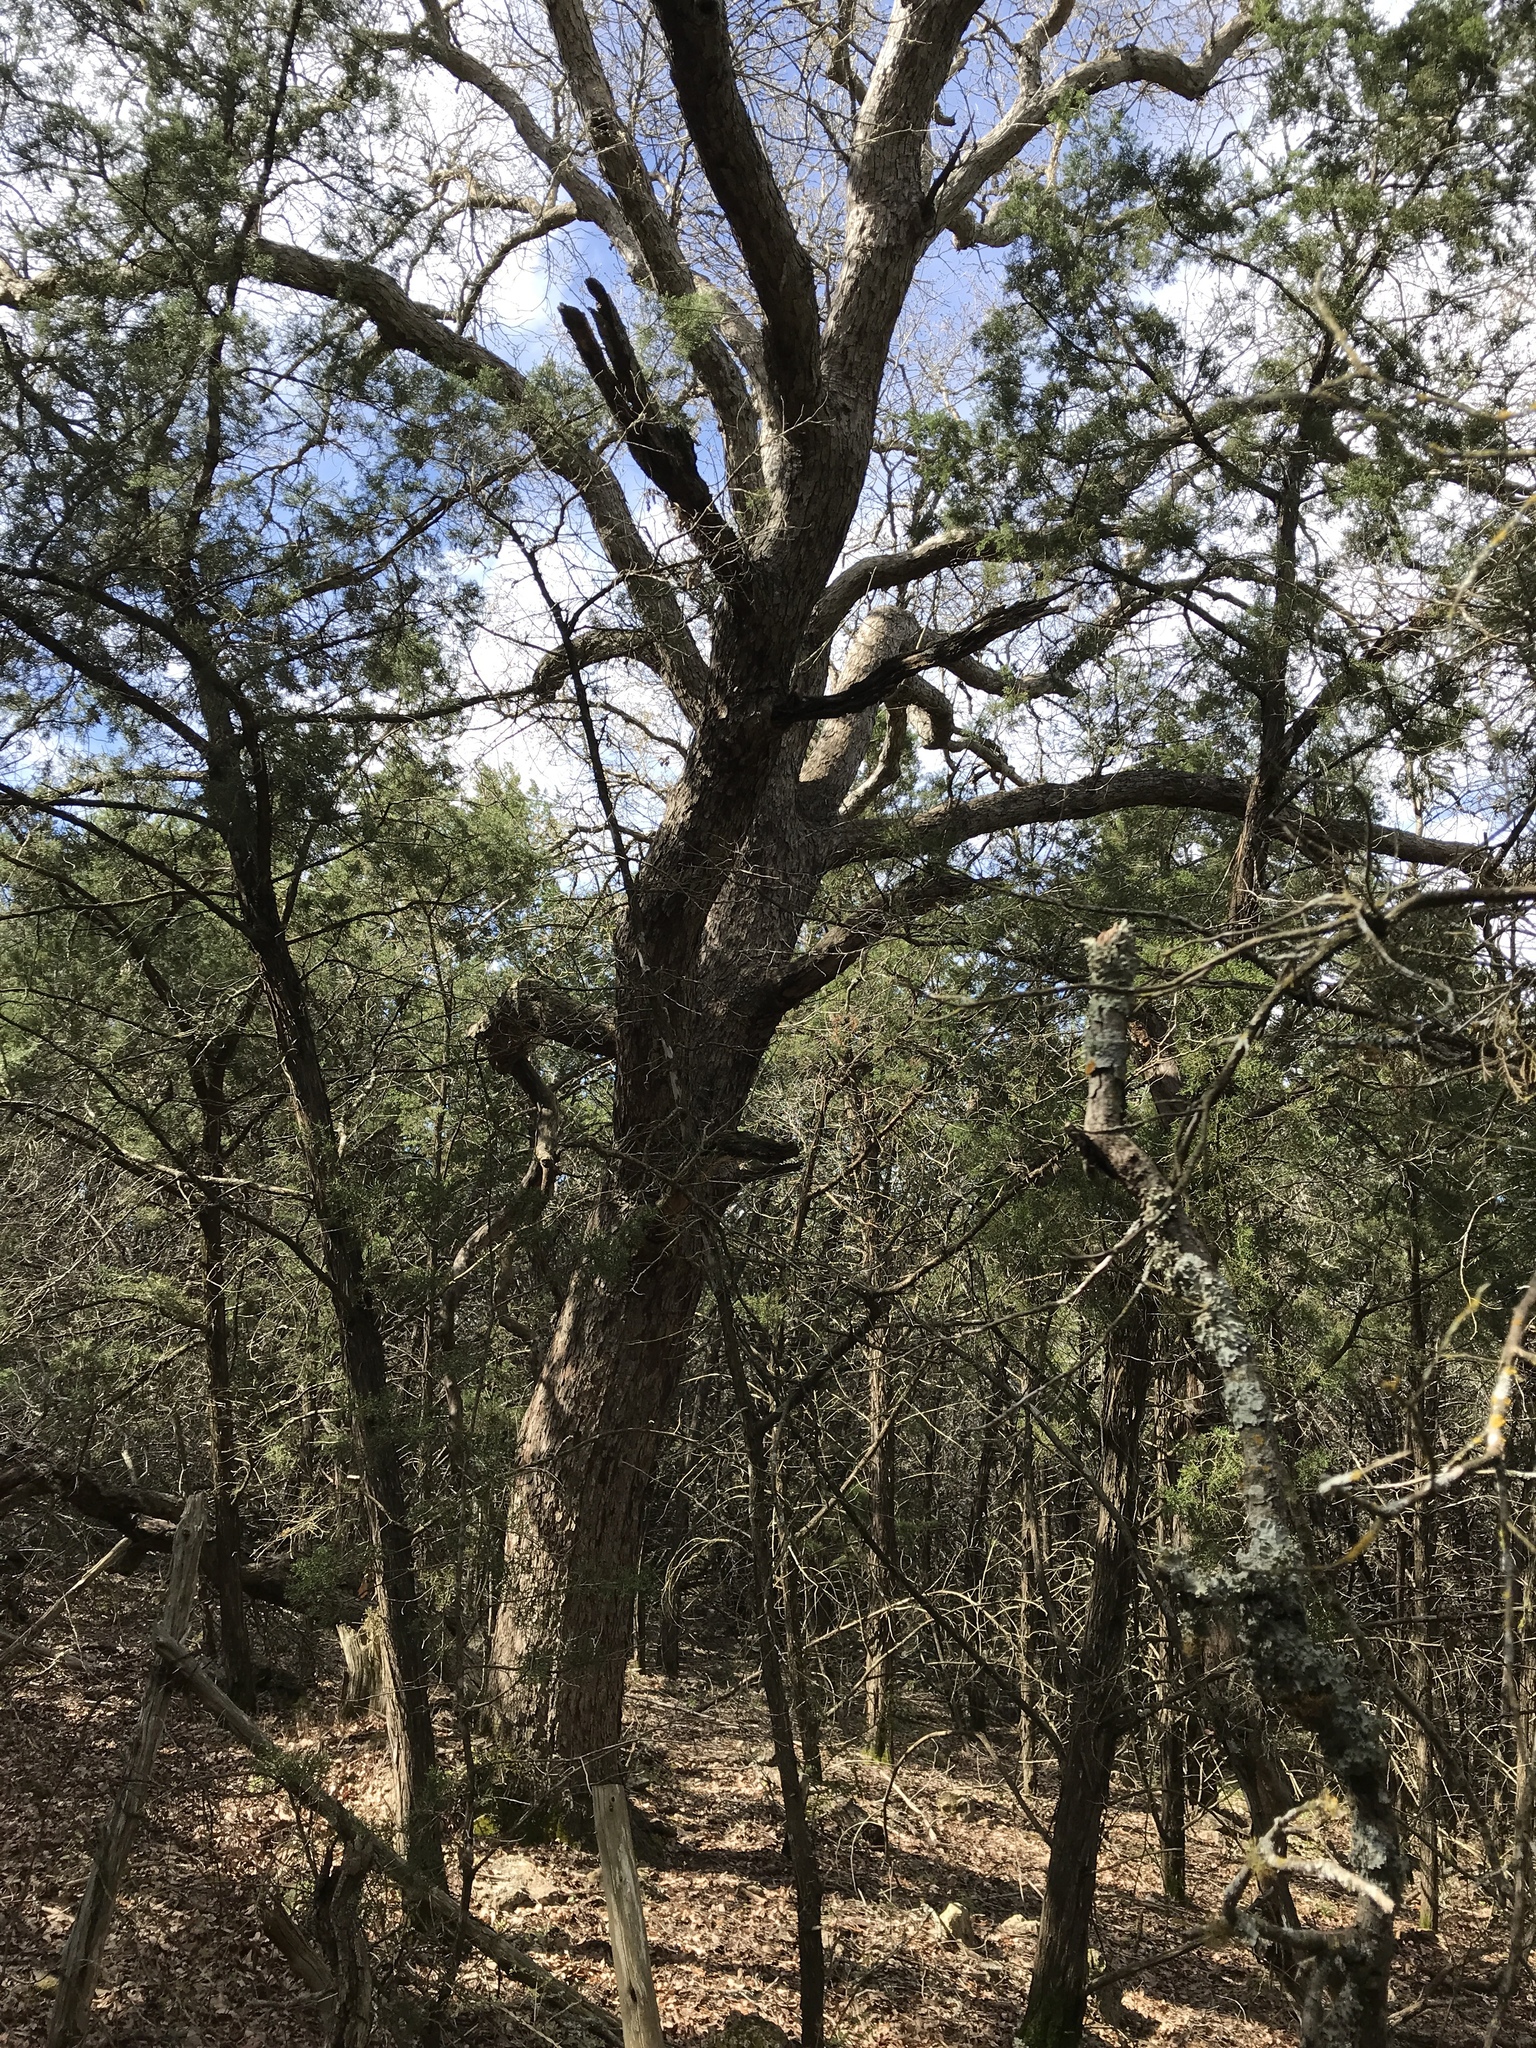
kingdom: Plantae
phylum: Tracheophyta
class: Magnoliopsida
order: Fagales
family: Fagaceae
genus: Quercus
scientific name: Quercus sinuata
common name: Durand oak
